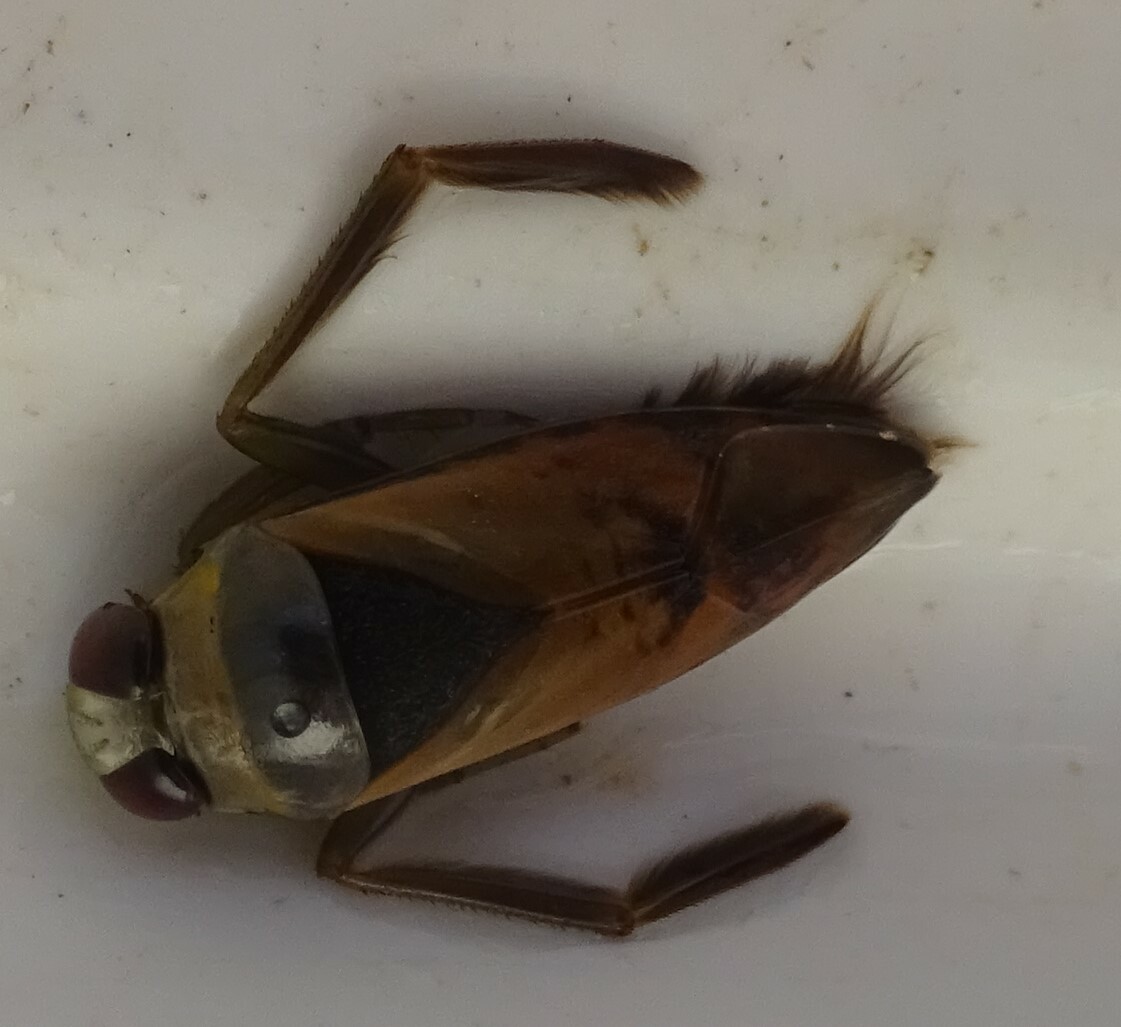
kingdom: Animalia
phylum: Arthropoda
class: Insecta
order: Hemiptera
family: Notonectidae
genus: Notonecta
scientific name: Notonecta glauca
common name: Common water-boatman
